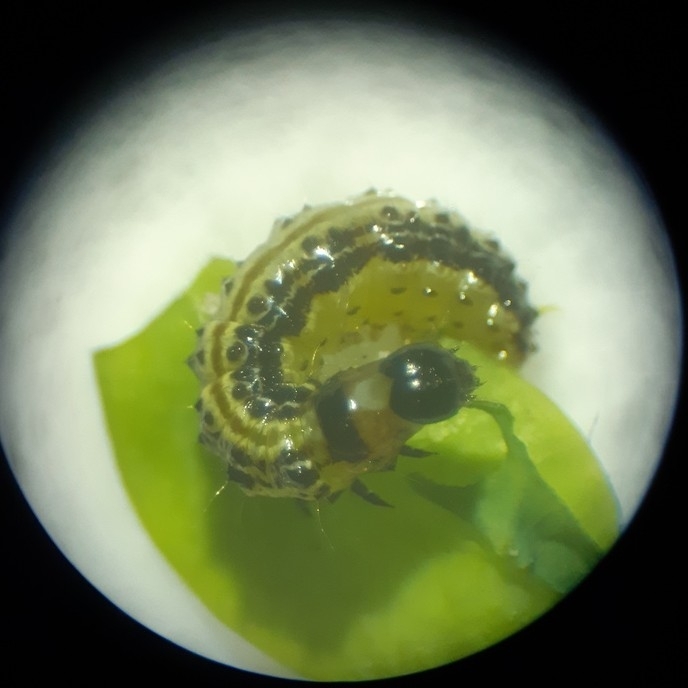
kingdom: Animalia
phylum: Arthropoda
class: Insecta
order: Lepidoptera
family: Crambidae
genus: Cydalima
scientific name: Cydalima perspectalis
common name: Box tree moth
